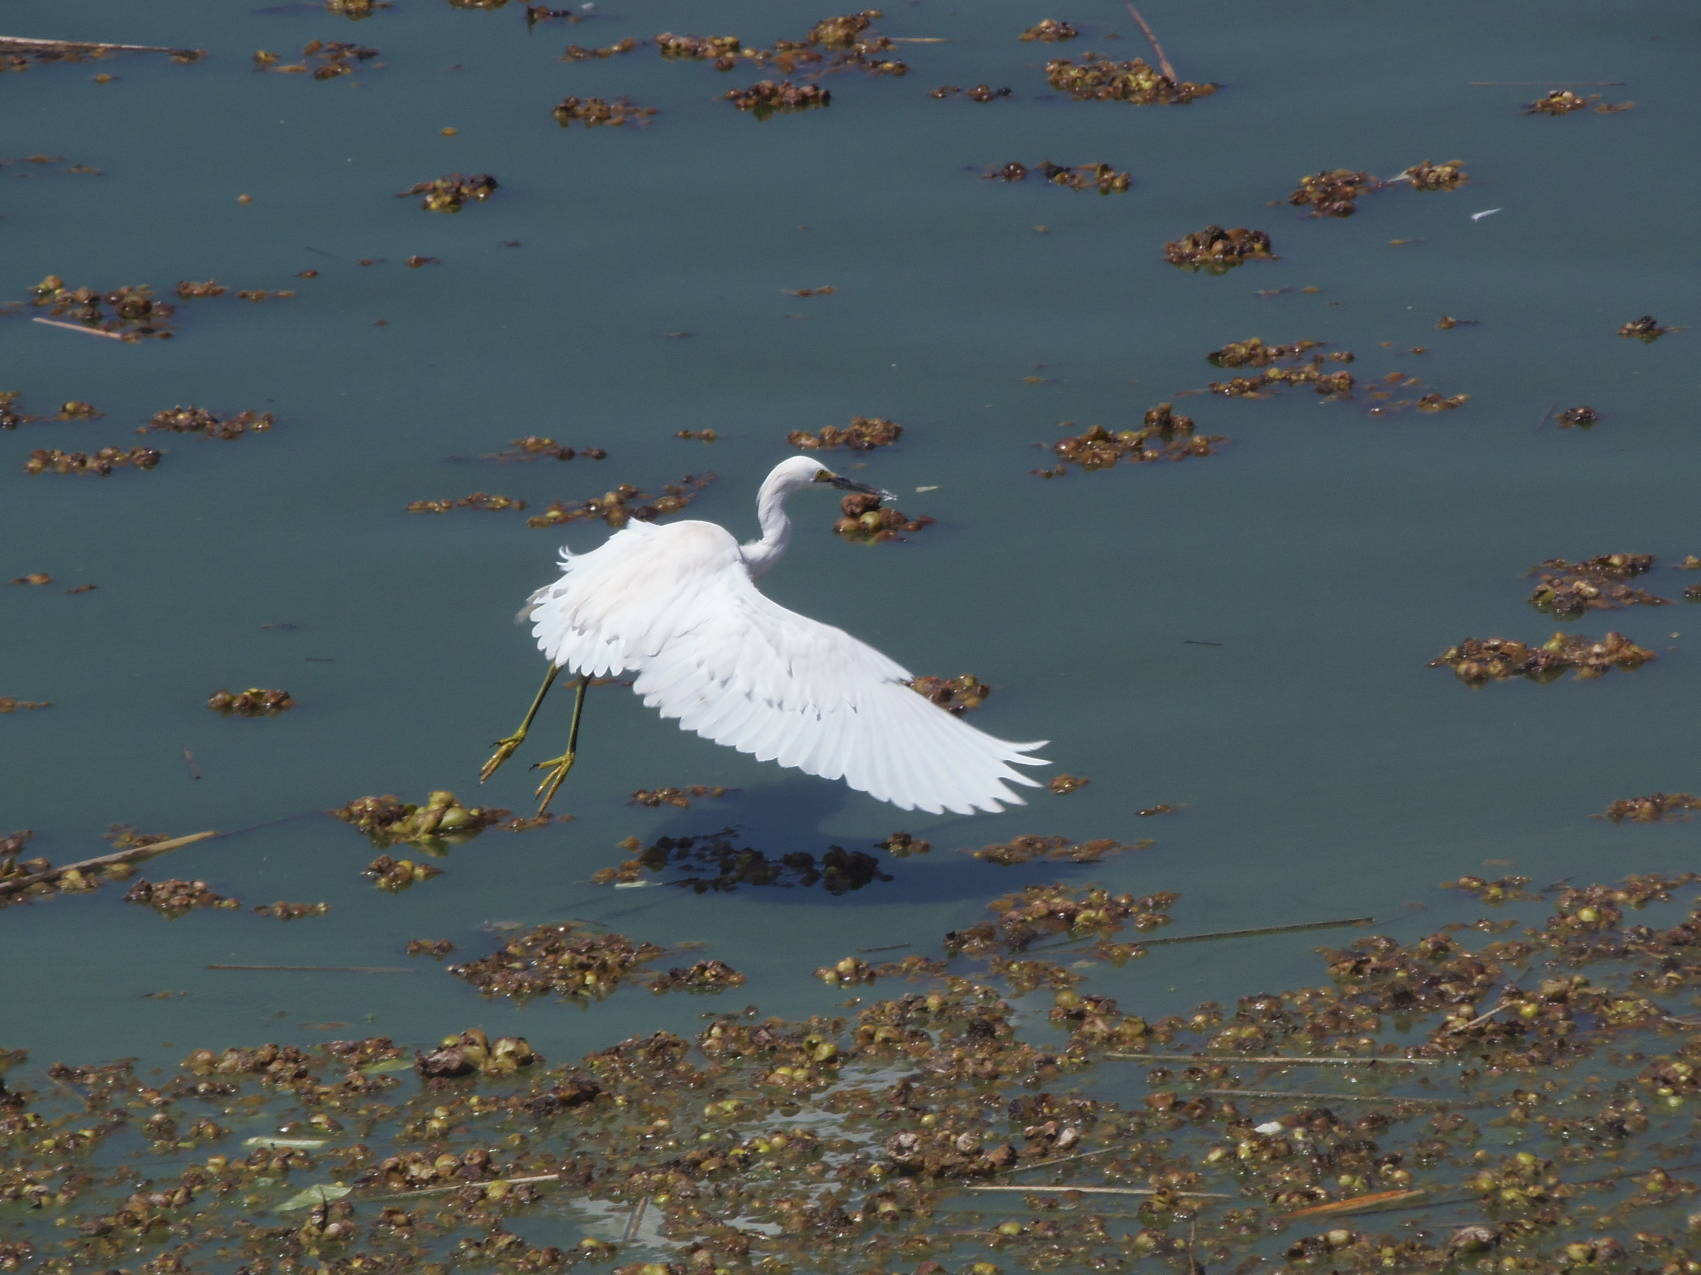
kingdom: Animalia
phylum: Chordata
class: Aves
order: Pelecaniformes
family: Ardeidae
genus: Egretta
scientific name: Egretta thula
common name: Snowy egret
